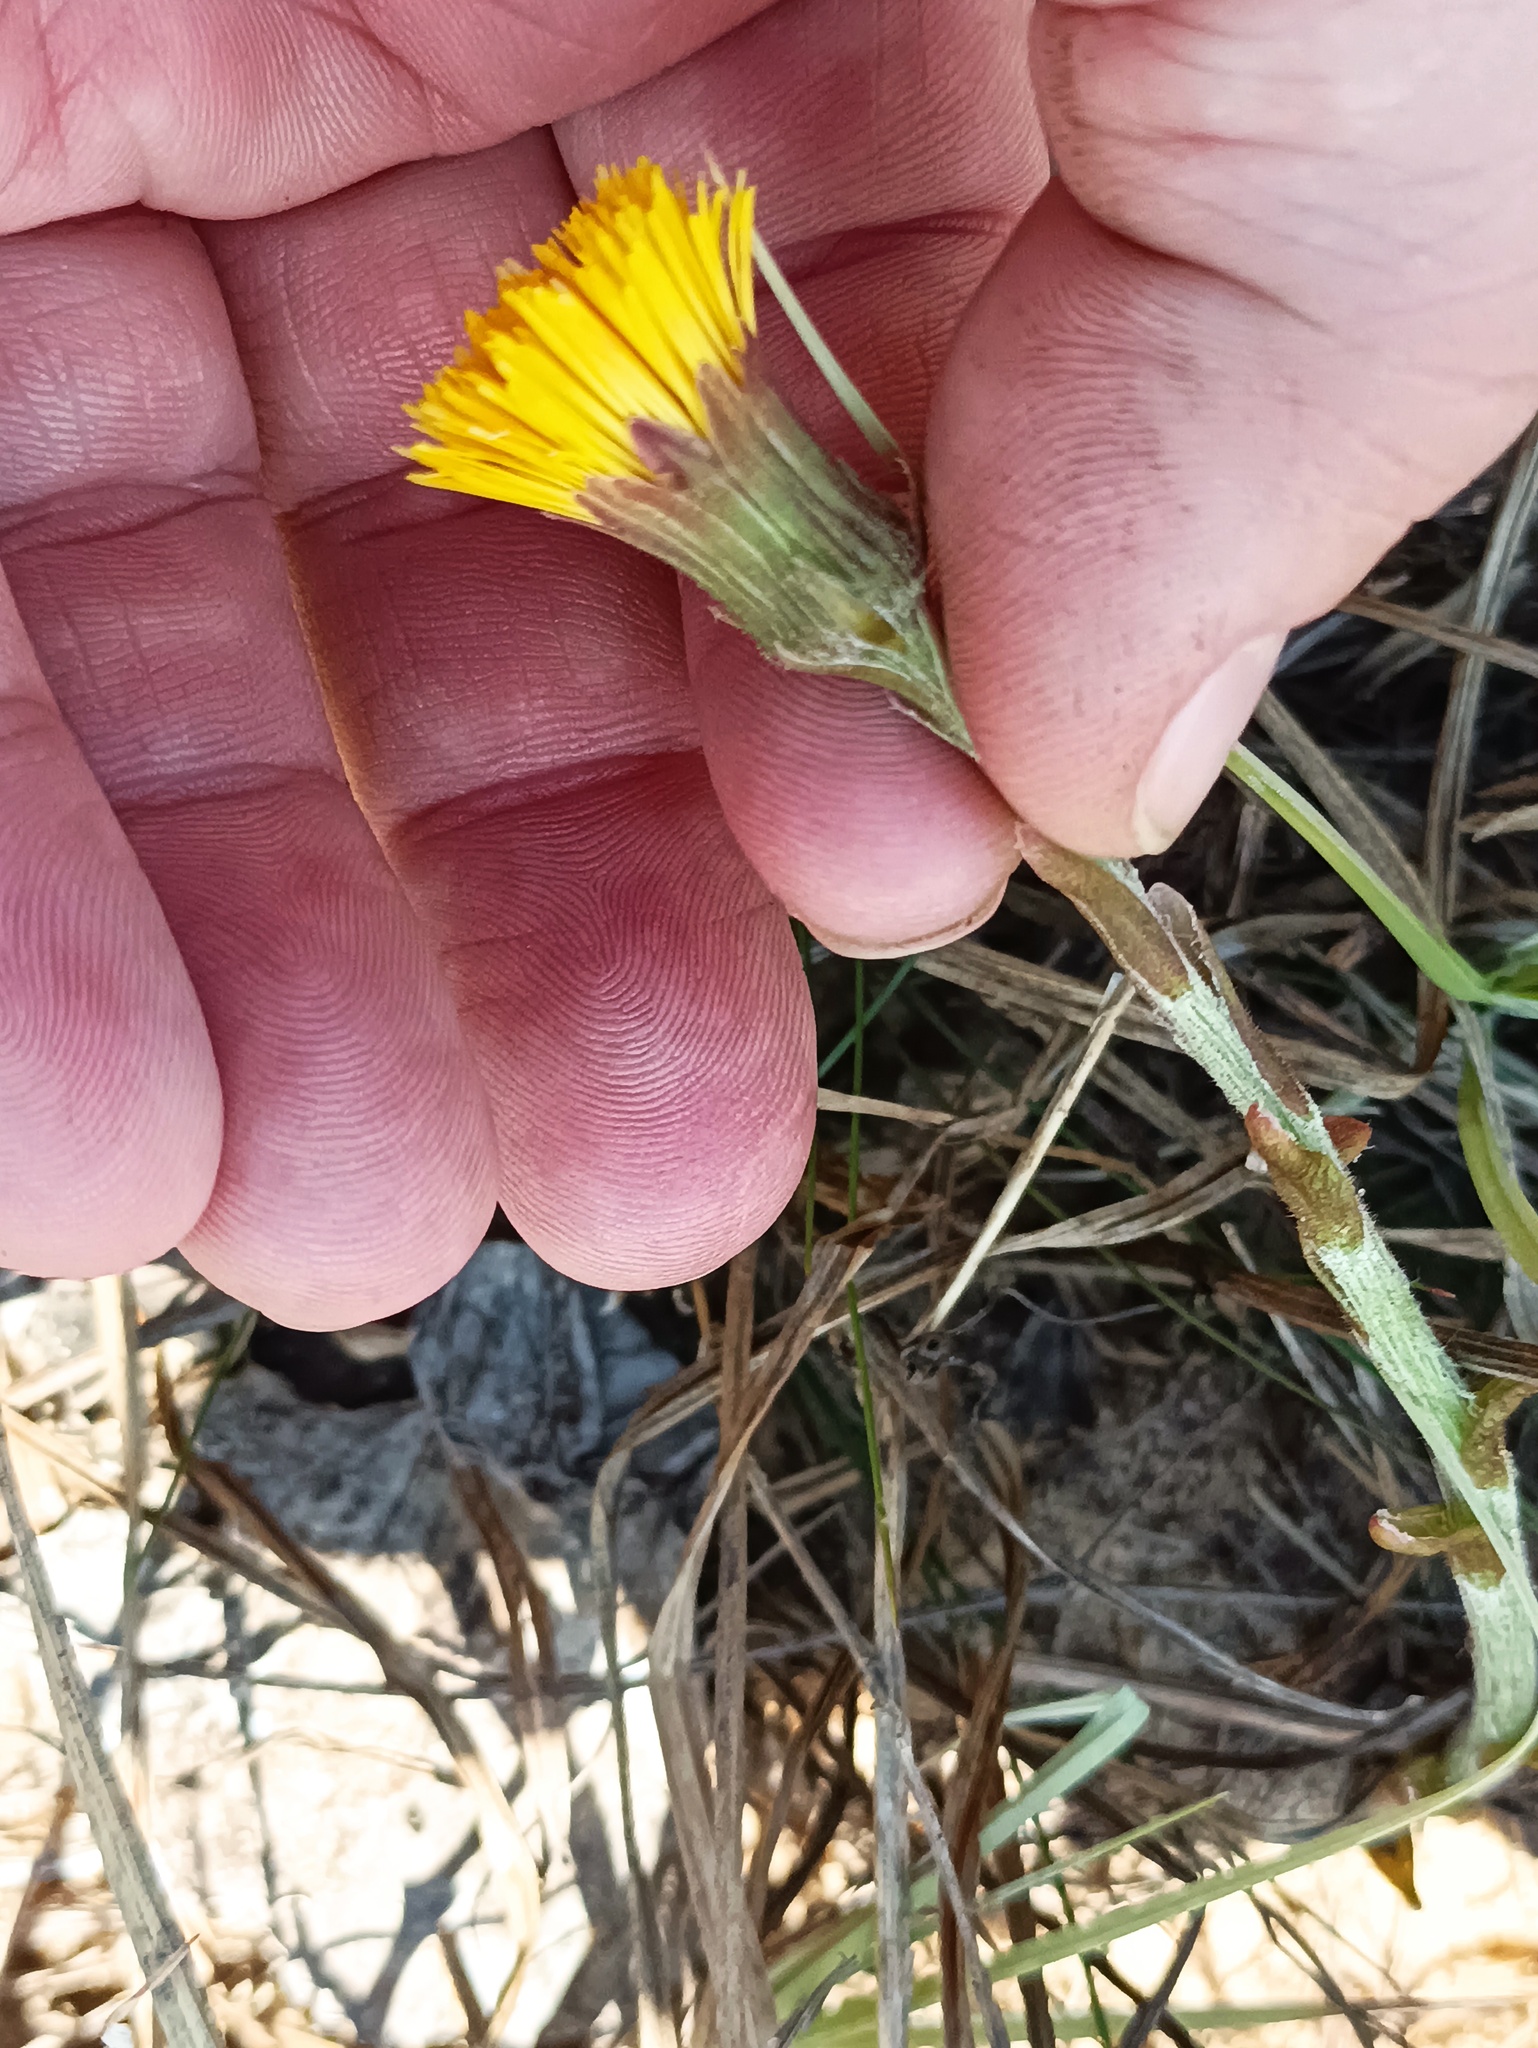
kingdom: Plantae
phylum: Tracheophyta
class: Magnoliopsida
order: Asterales
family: Asteraceae
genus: Tussilago
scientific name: Tussilago farfara
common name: Coltsfoot
